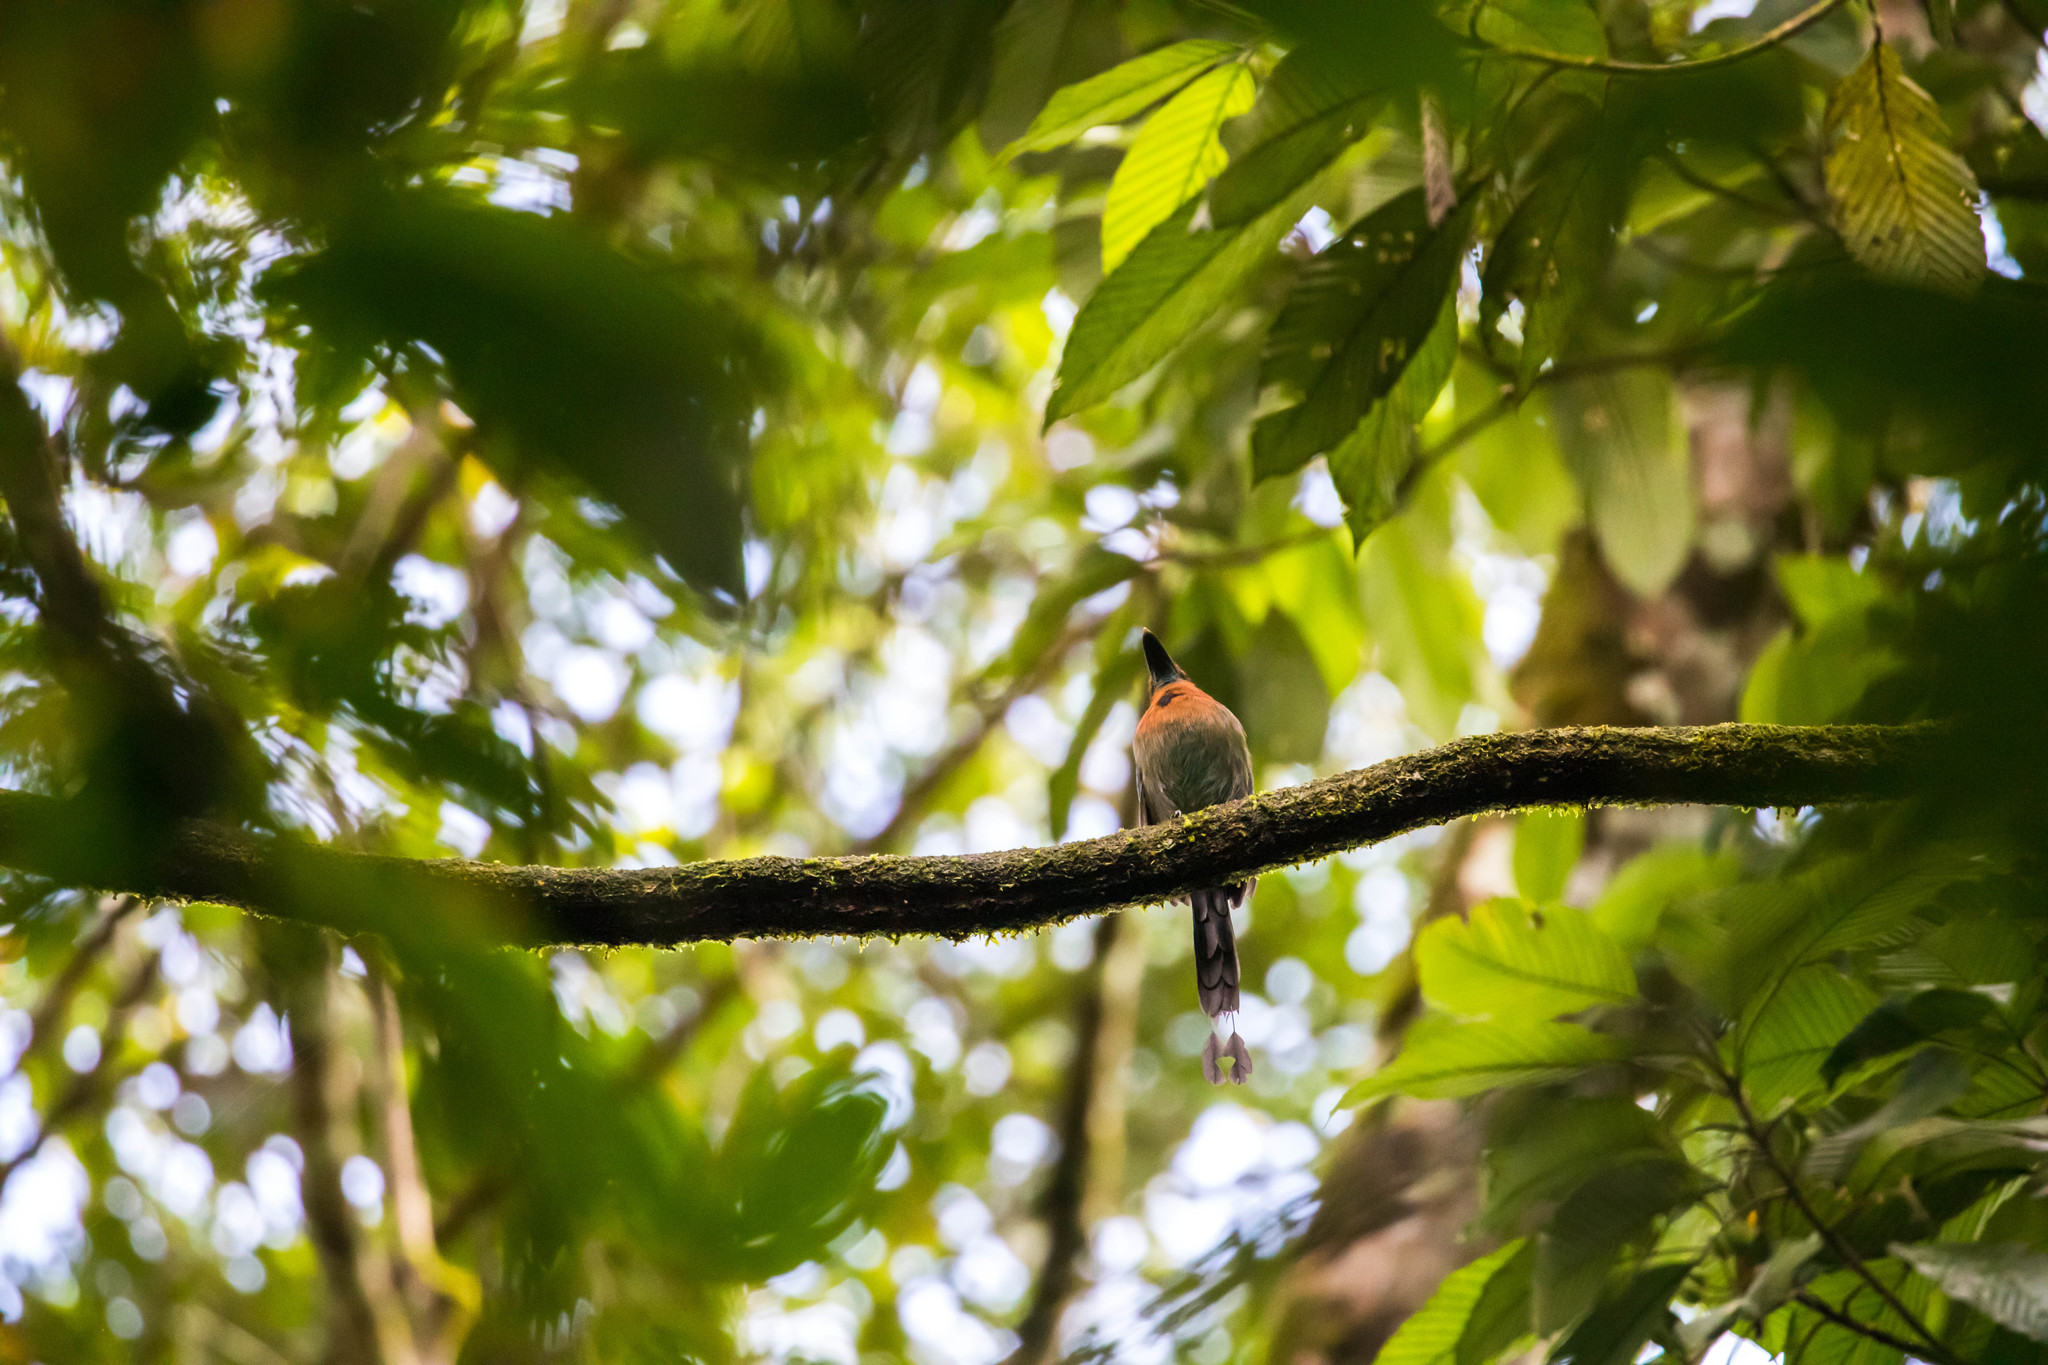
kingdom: Animalia
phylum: Chordata
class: Aves
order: Coraciiformes
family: Momotidae
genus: Electron
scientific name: Electron platyrhynchum
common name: Broad-billed motmot
